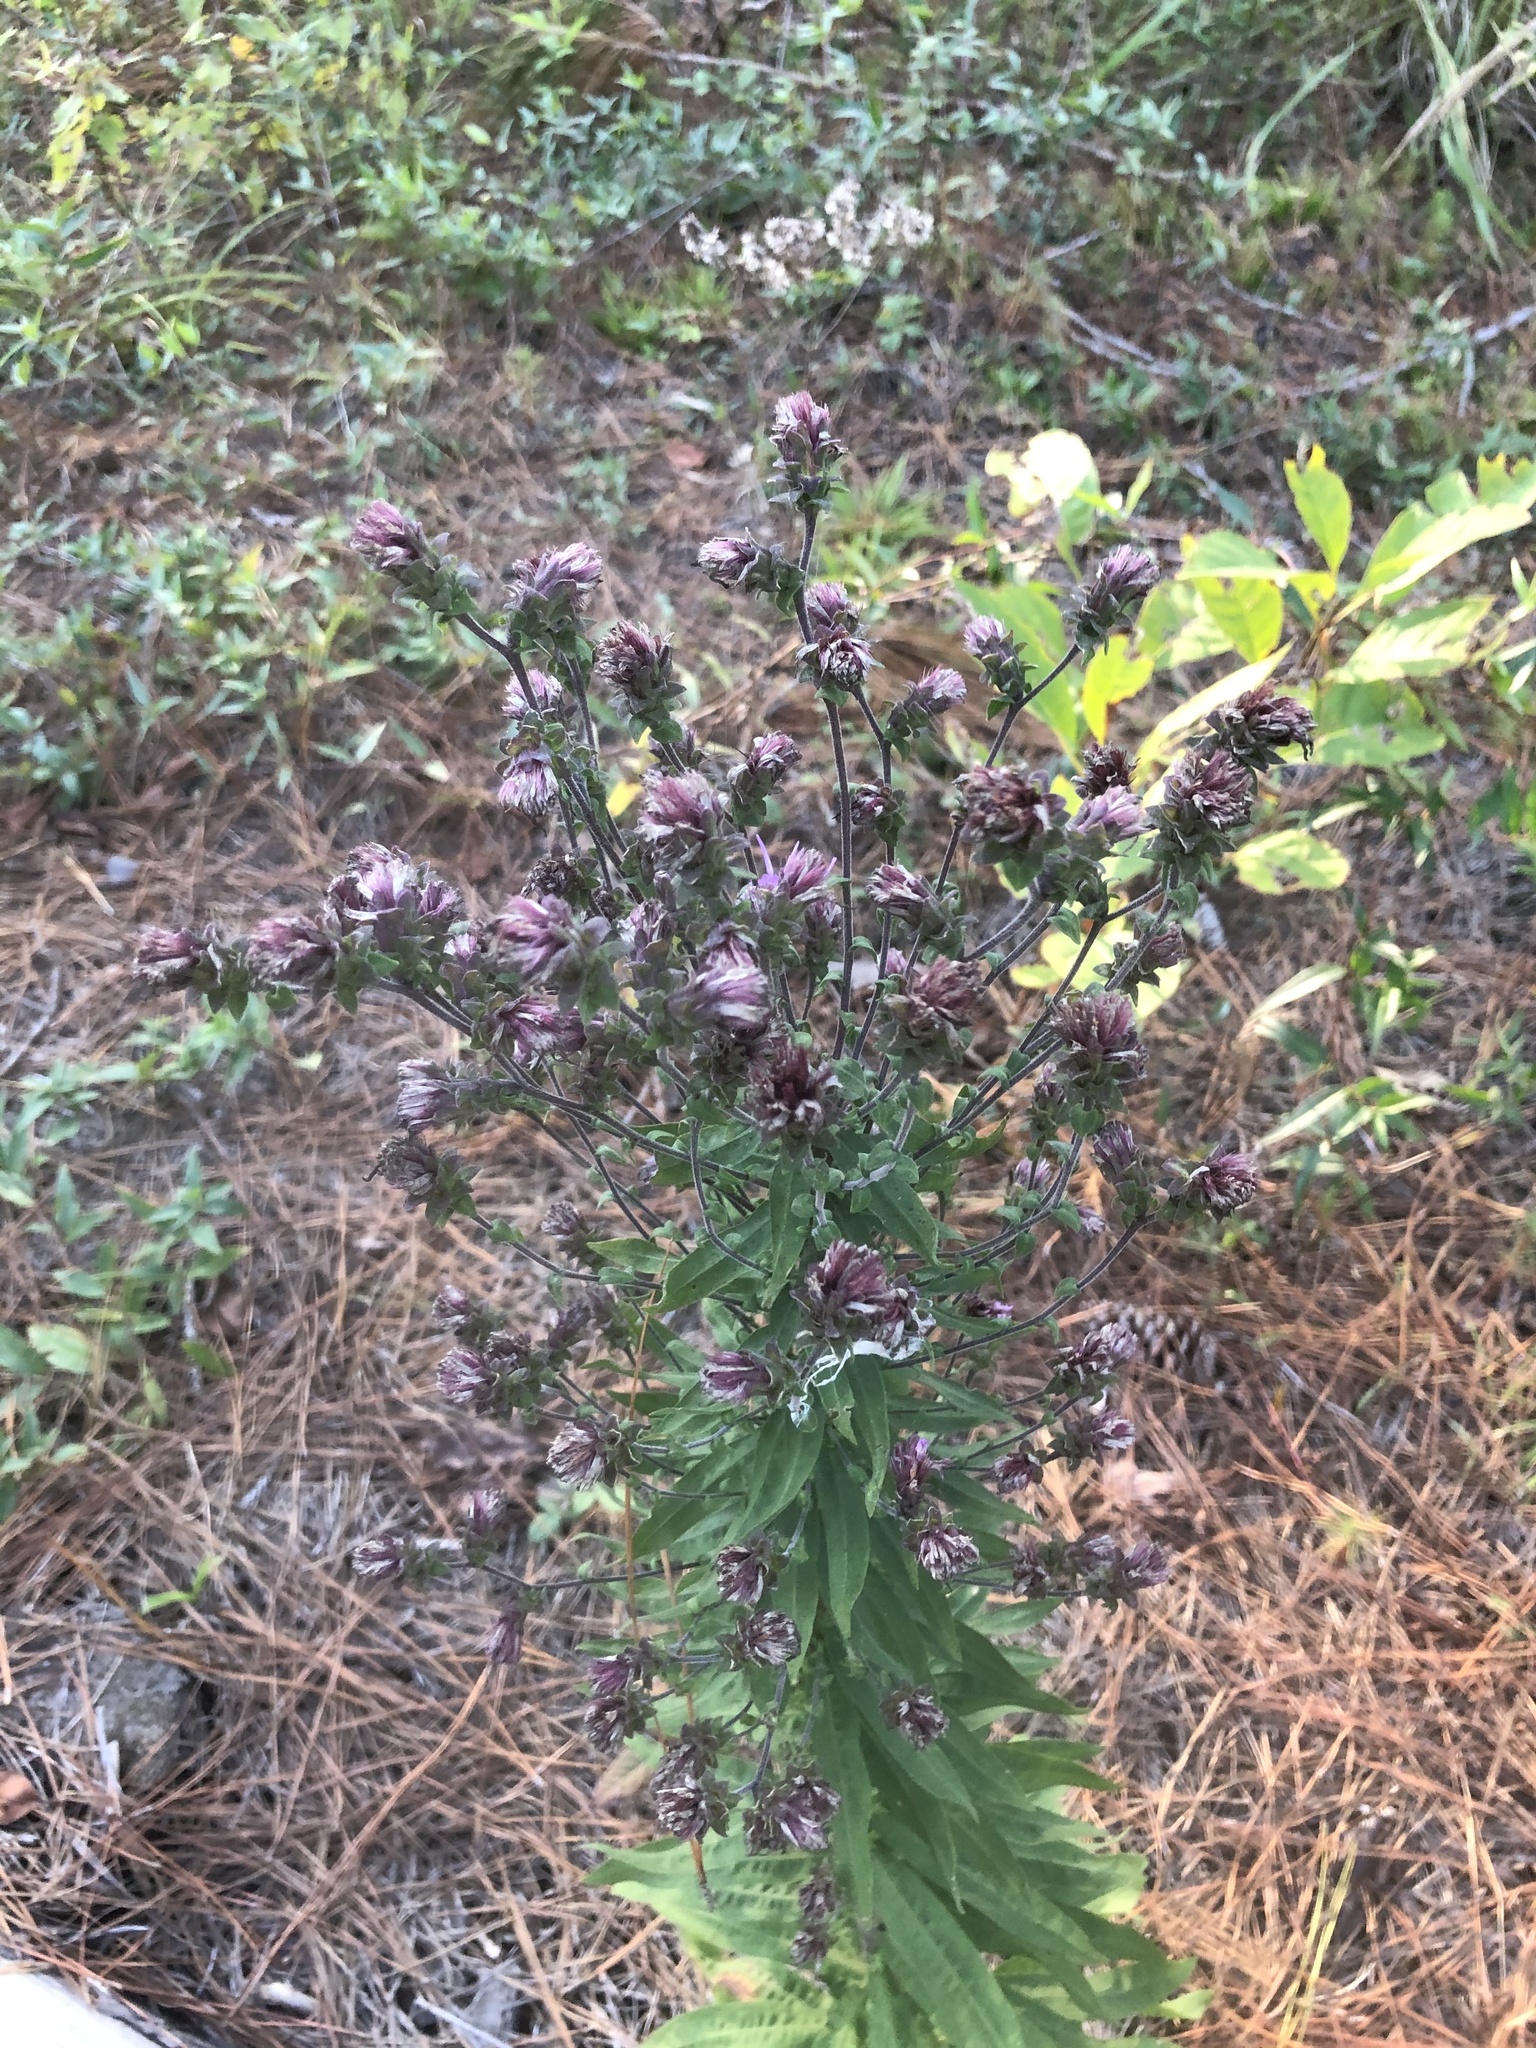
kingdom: Plantae
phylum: Tracheophyta
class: Magnoliopsida
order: Asterales
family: Asteraceae
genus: Liatris
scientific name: Liatris squarrulosa
